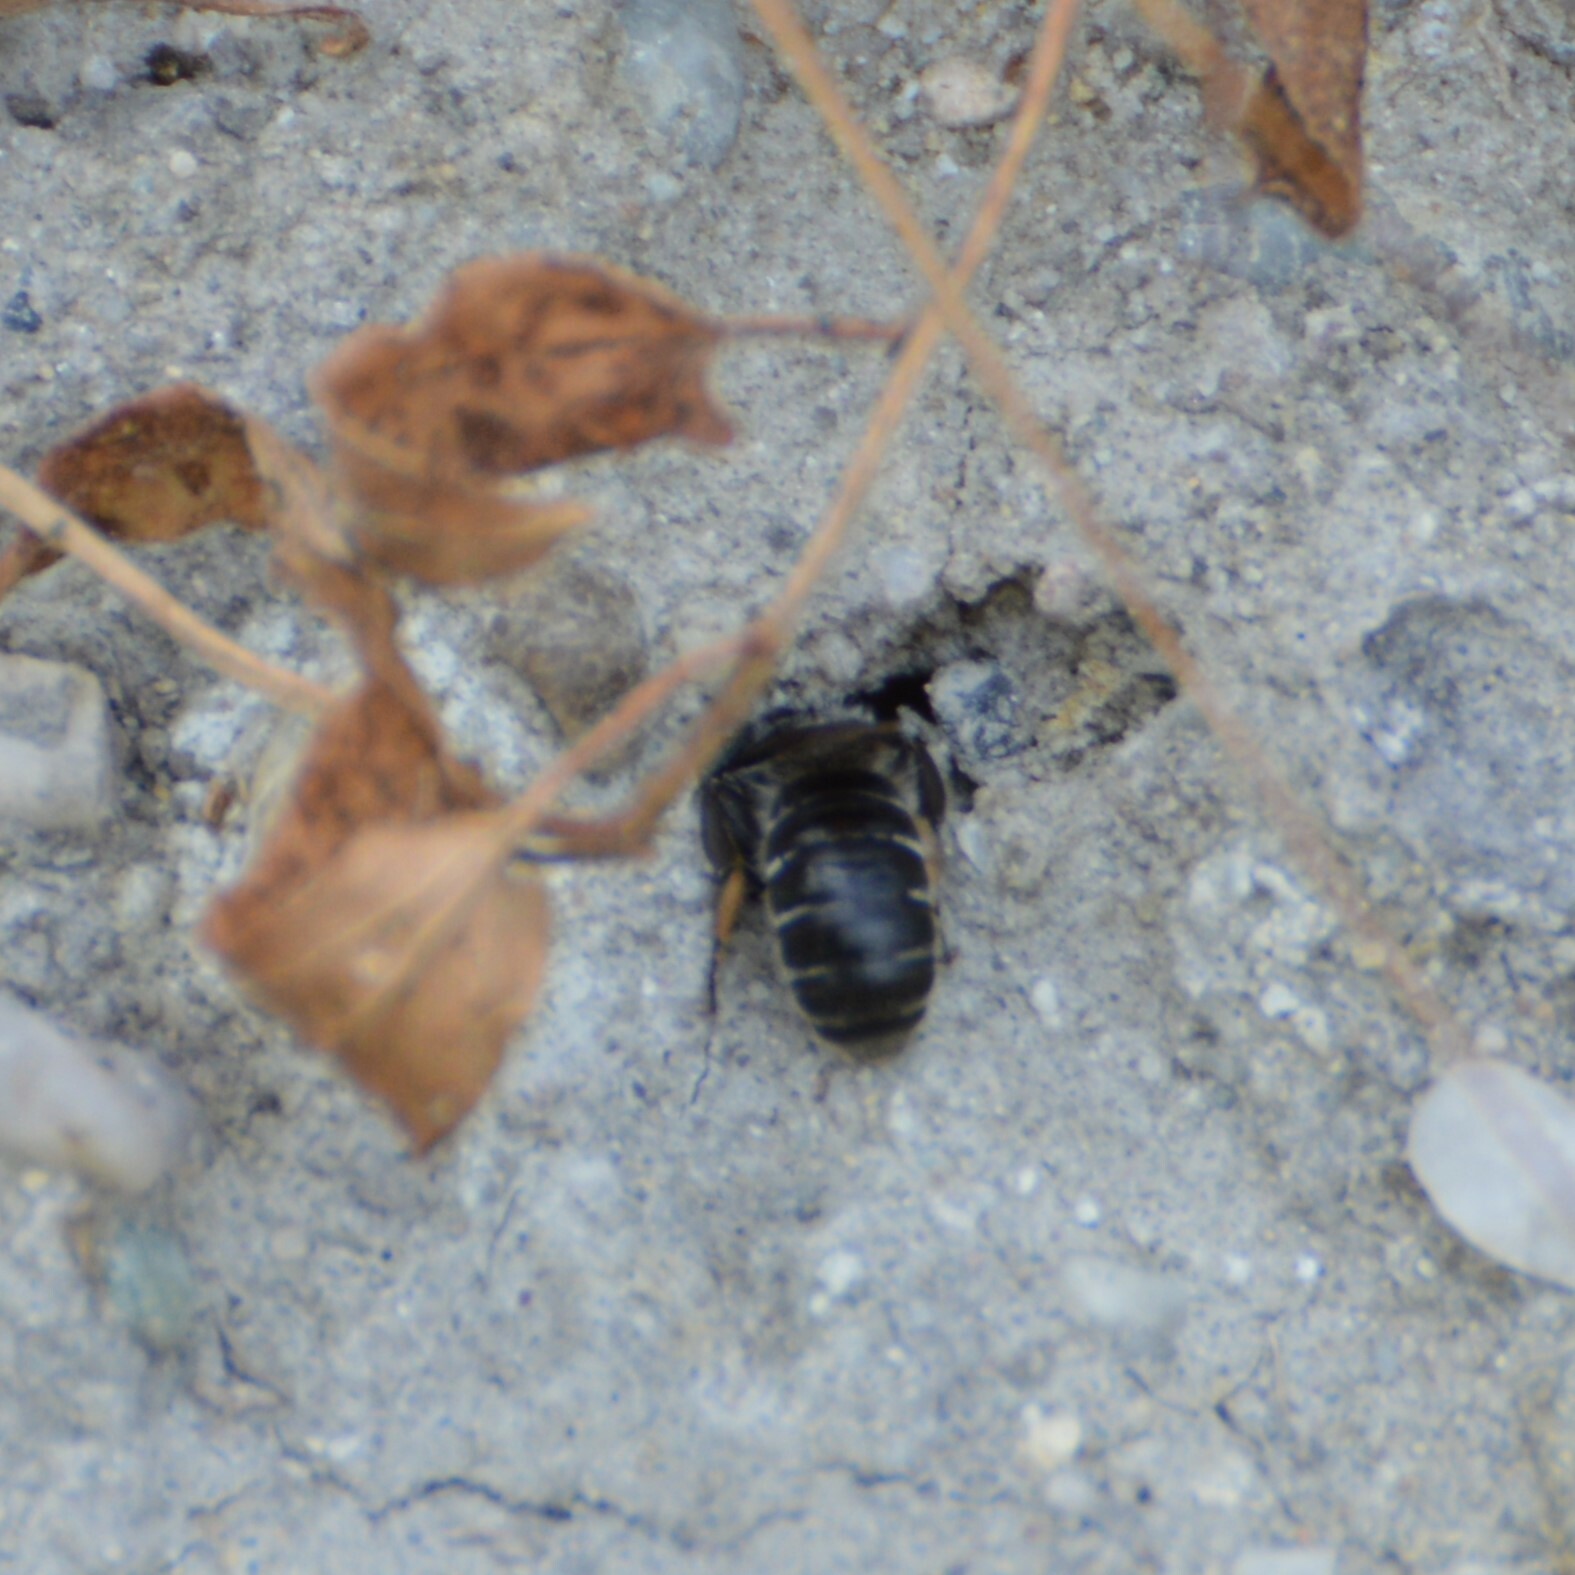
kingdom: Animalia
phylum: Arthropoda
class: Insecta
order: Hymenoptera
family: Megachilidae
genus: Hoplitis
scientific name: Hoplitis
